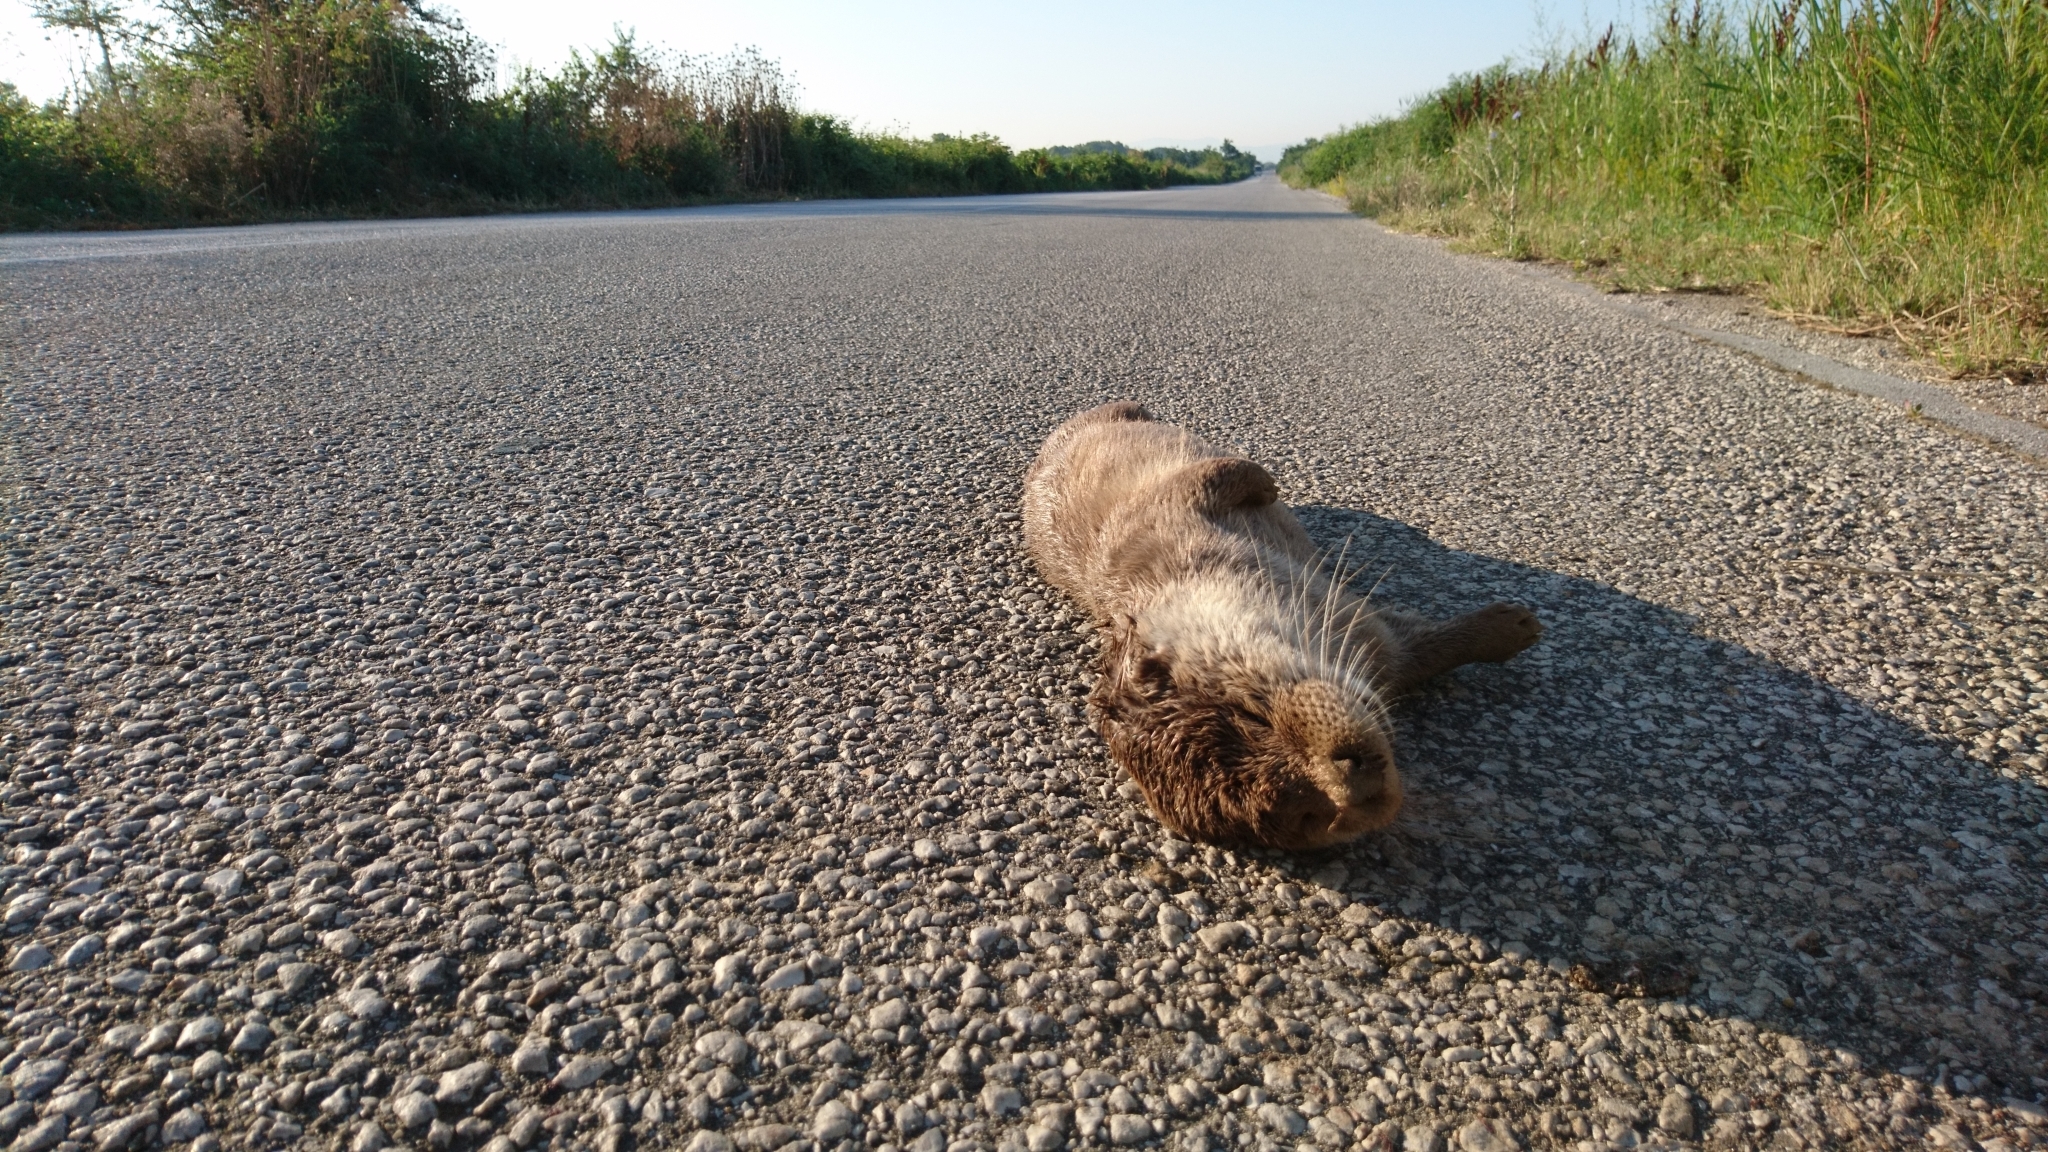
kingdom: Animalia
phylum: Chordata
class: Mammalia
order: Carnivora
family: Mustelidae
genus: Lutra
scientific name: Lutra lutra
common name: European otter
